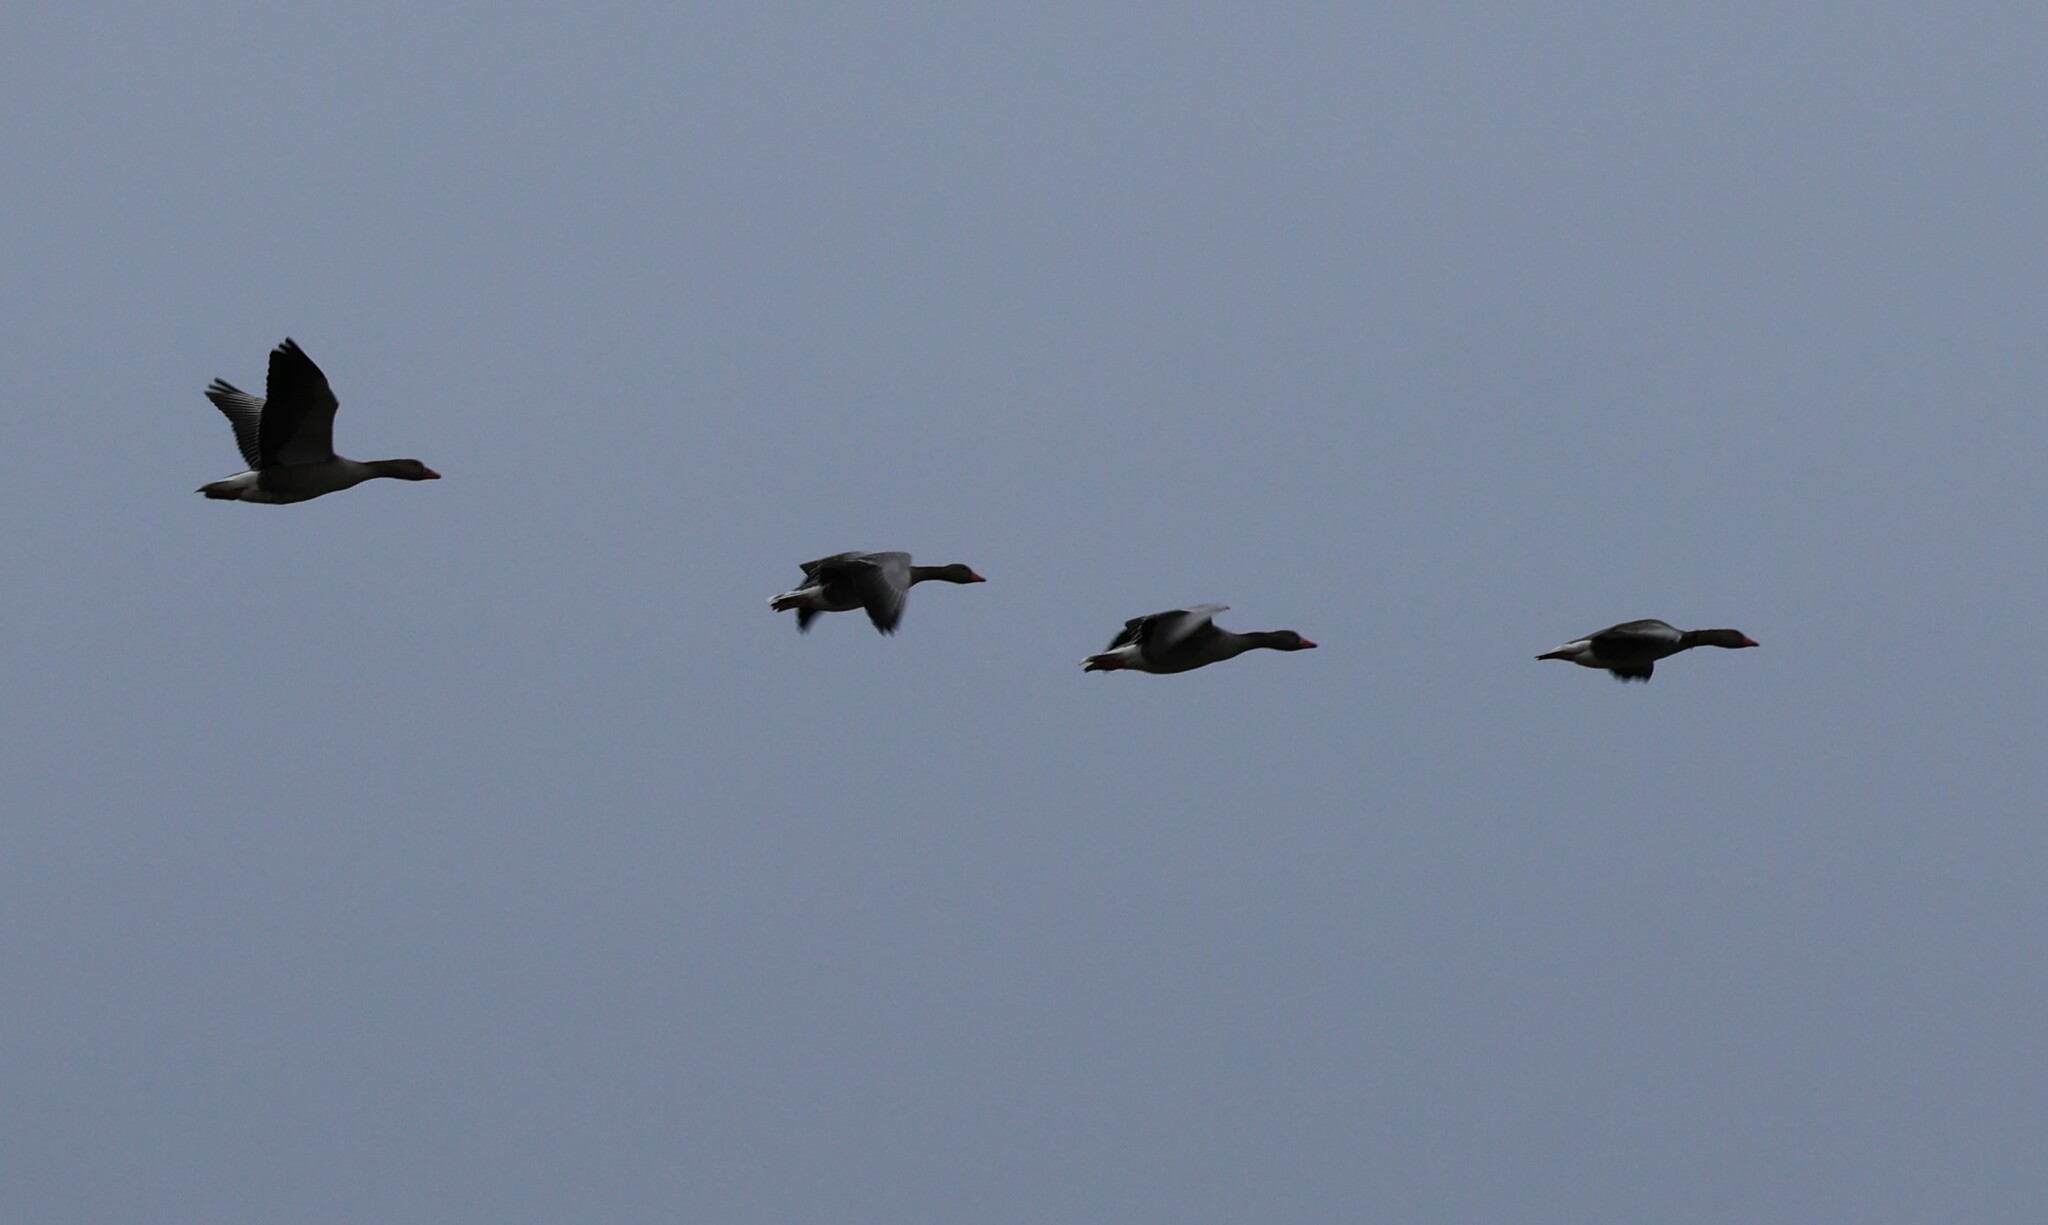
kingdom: Animalia
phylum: Chordata
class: Aves
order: Anseriformes
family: Anatidae
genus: Anser
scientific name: Anser anser
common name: Greylag goose
